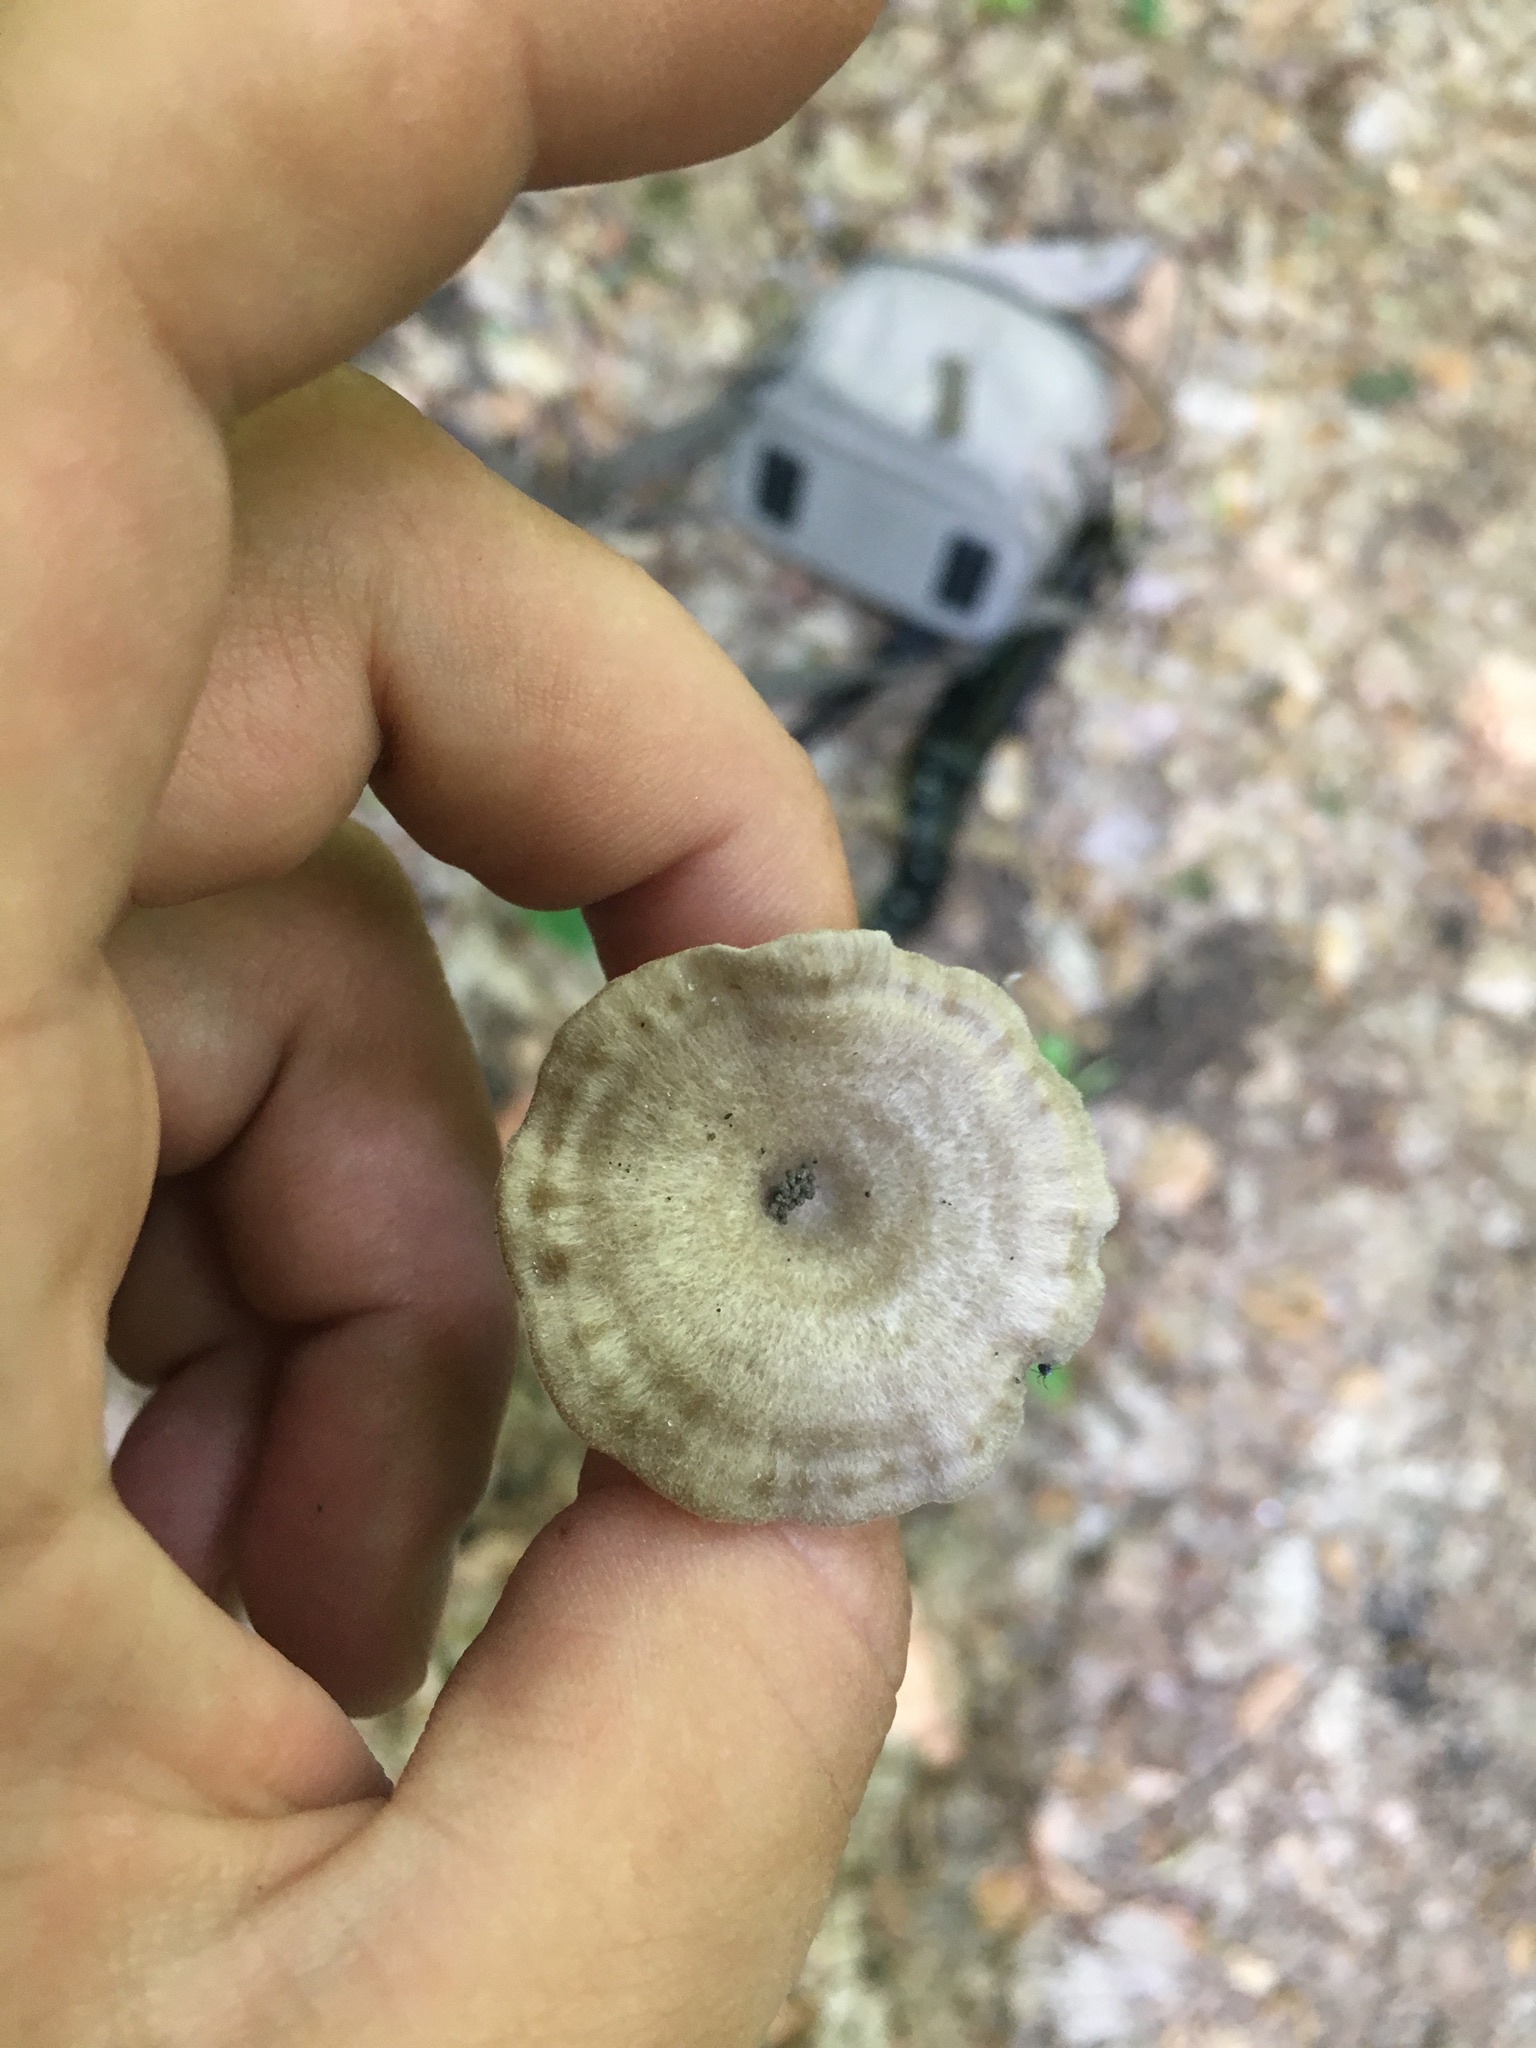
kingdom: Fungi
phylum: Basidiomycota
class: Agaricomycetes
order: Agaricales
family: Entolomataceae
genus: Entoloma
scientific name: Entoloma undatum
